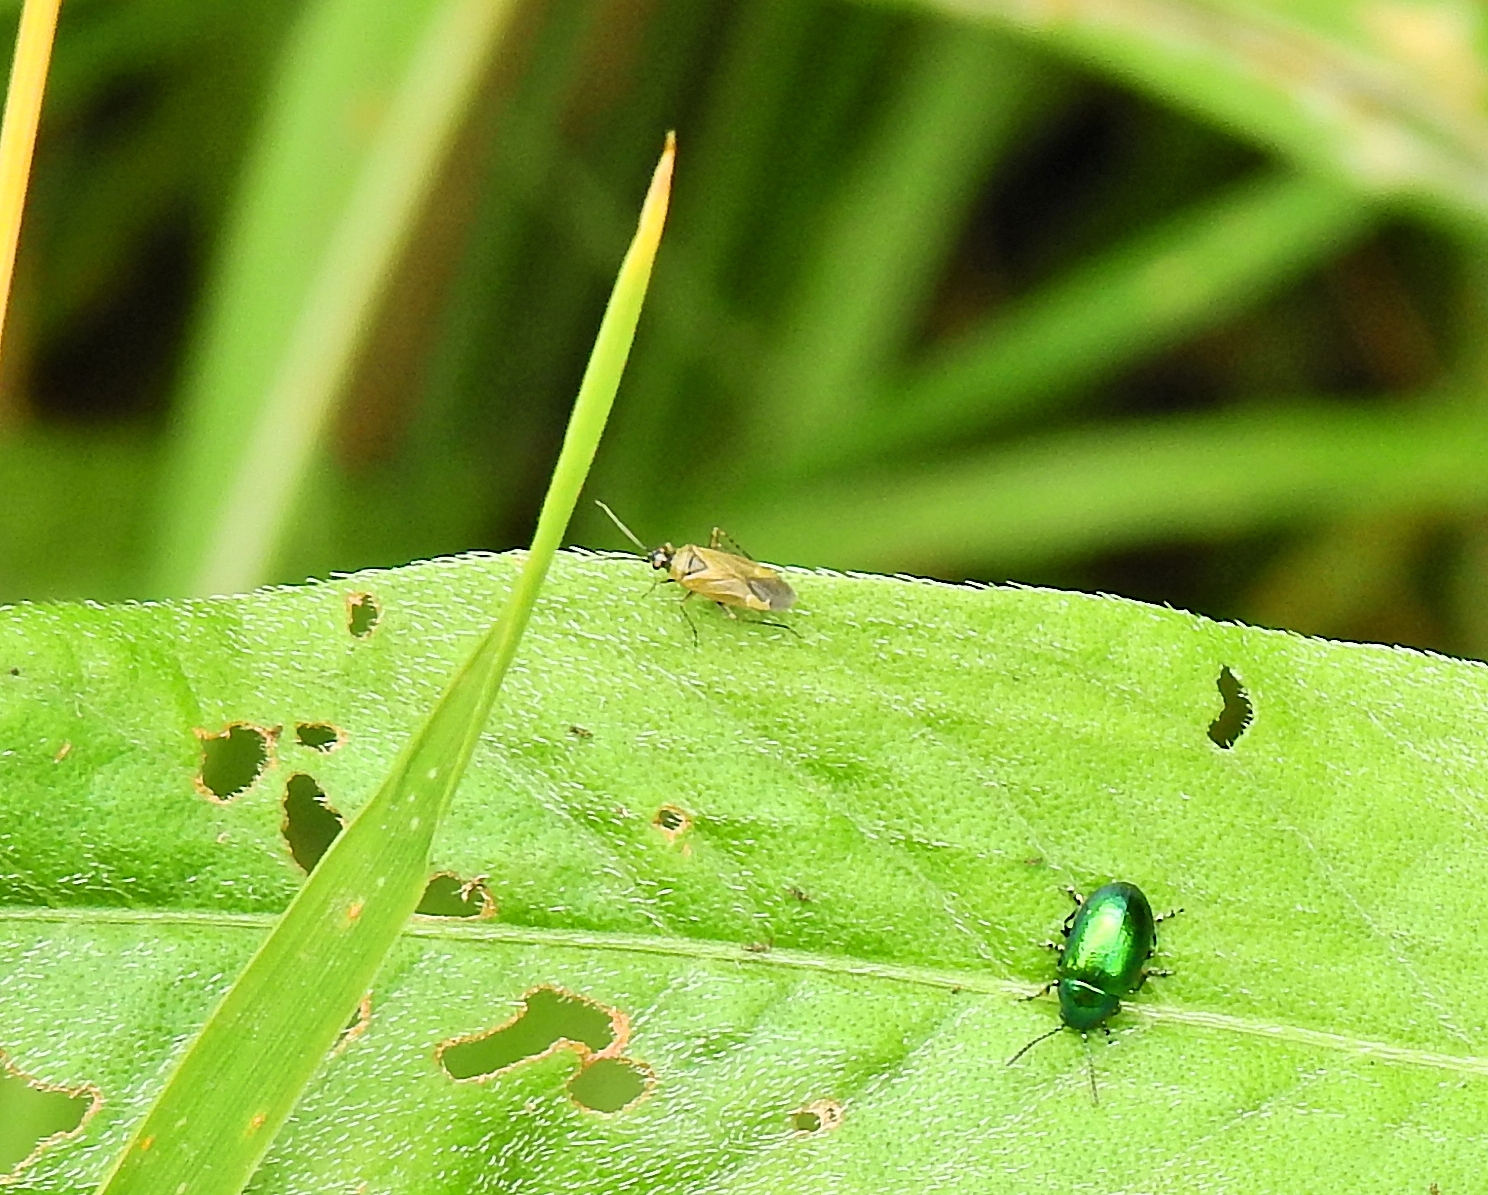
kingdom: Animalia
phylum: Arthropoda
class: Insecta
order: Coleoptera
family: Chrysomelidae
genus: Gastrophysa
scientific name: Gastrophysa viridula
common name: Green dock beetle
